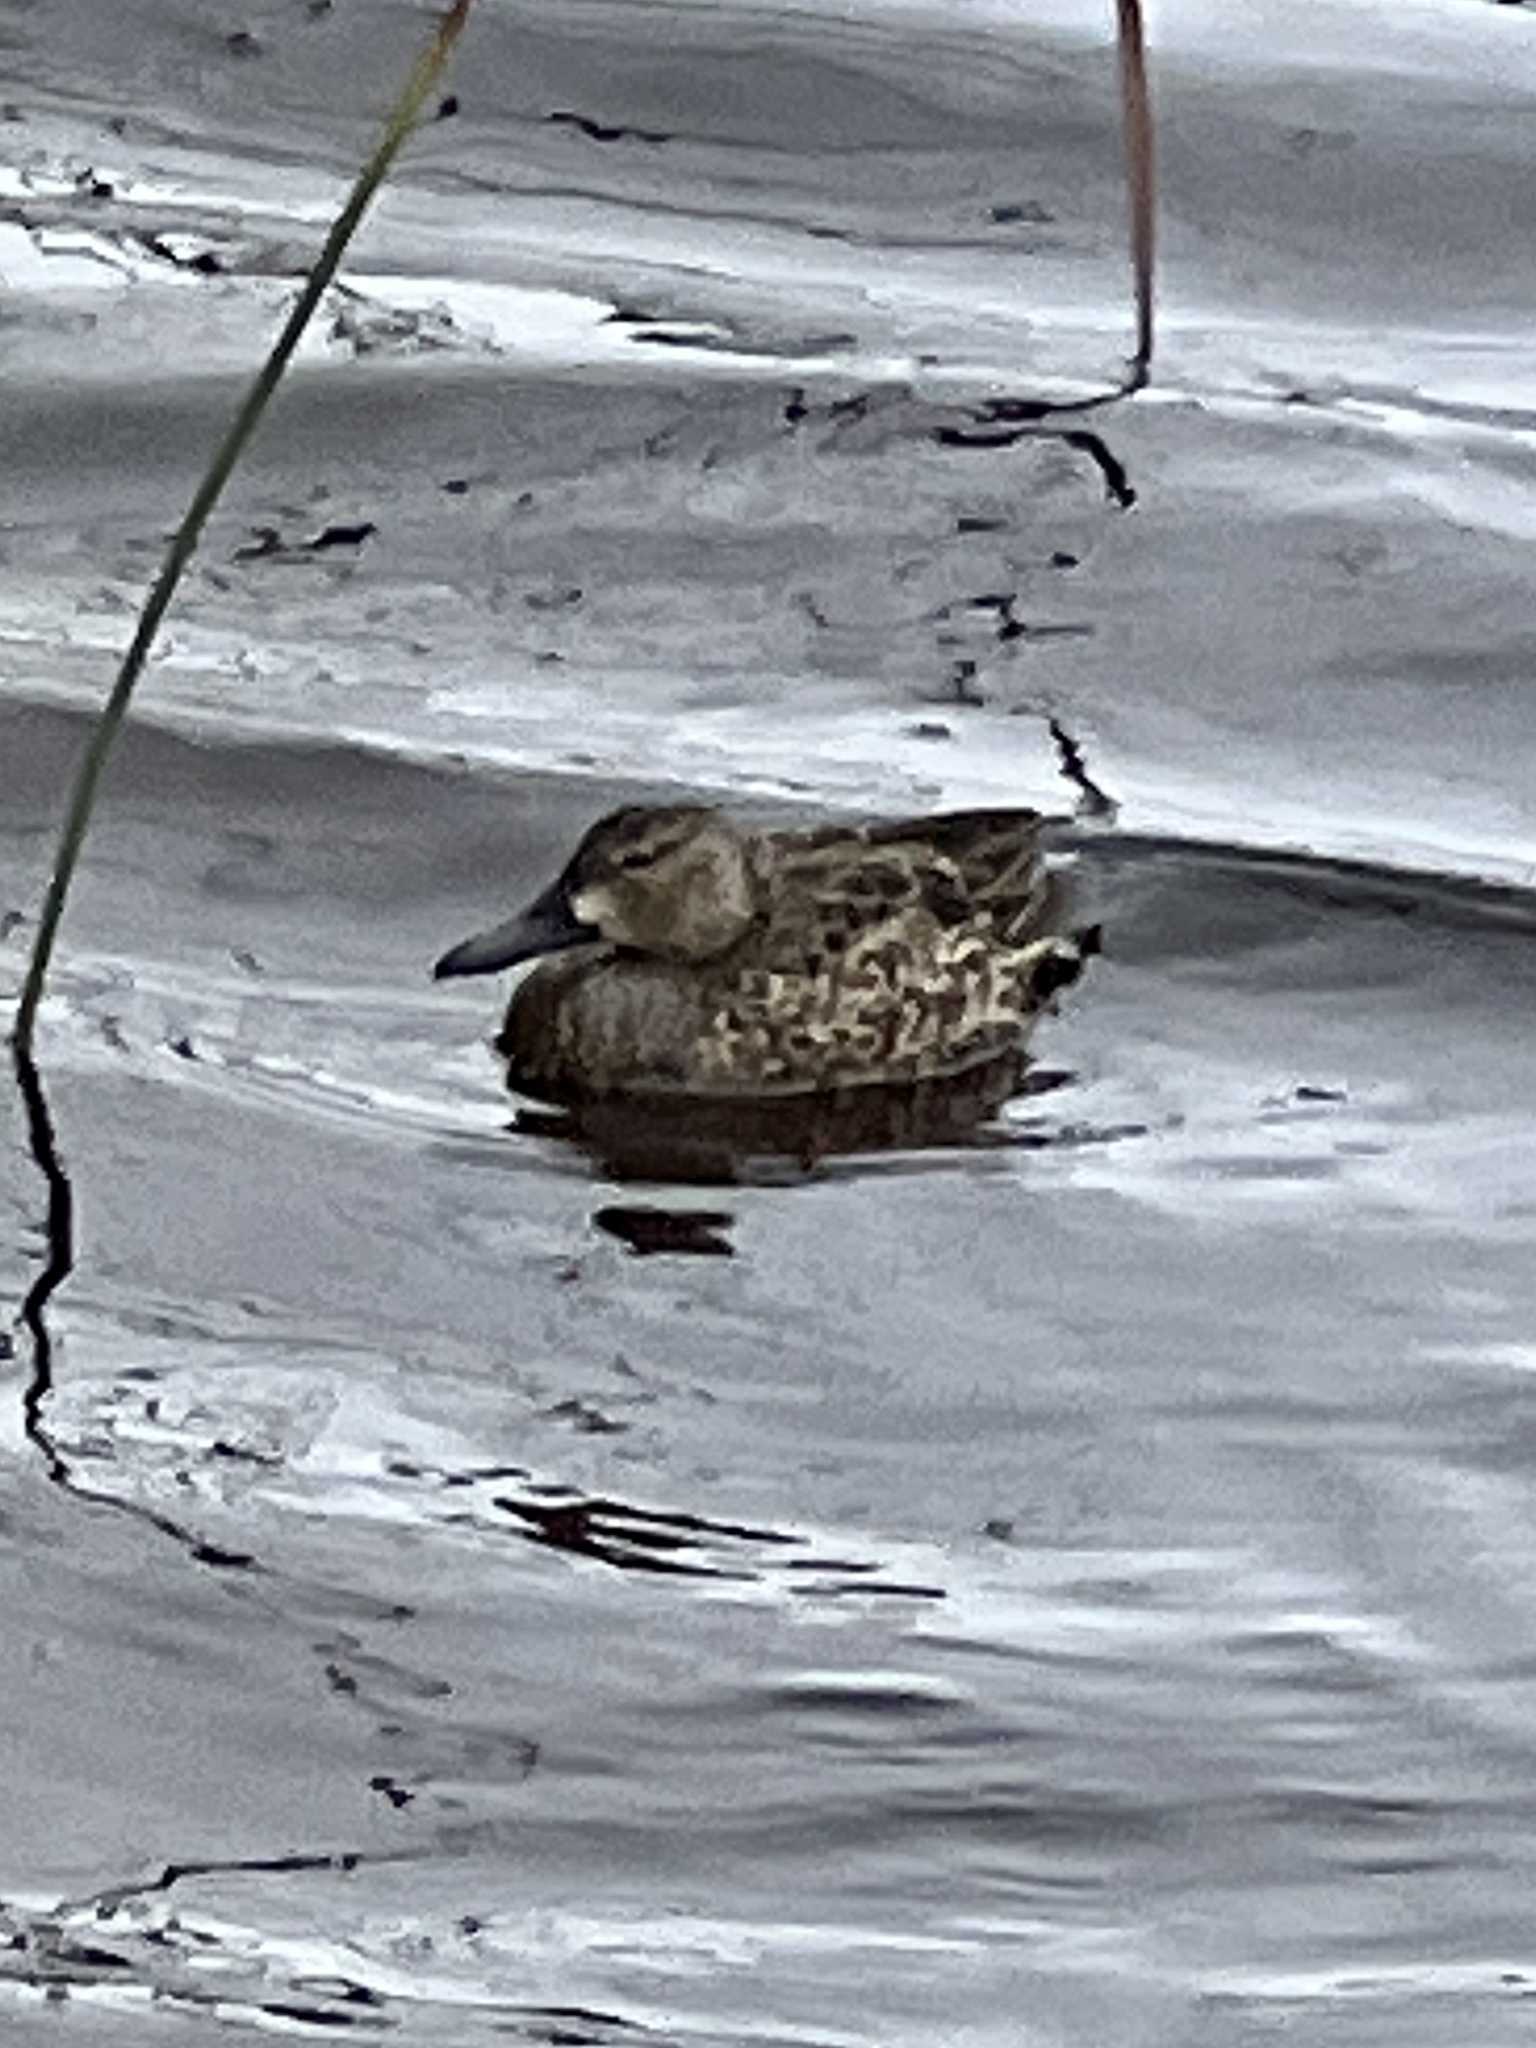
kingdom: Animalia
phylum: Chordata
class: Aves
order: Anseriformes
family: Anatidae
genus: Spatula
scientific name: Spatula cyanoptera
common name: Cinnamon teal
